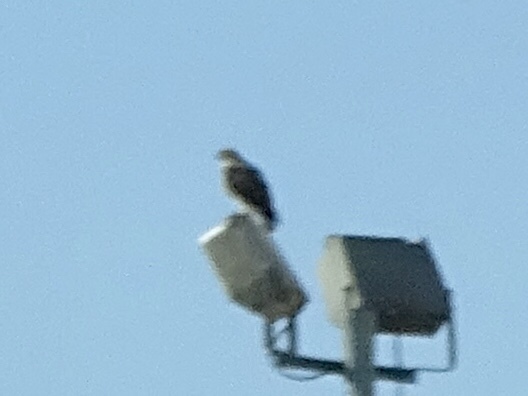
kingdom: Animalia
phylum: Chordata
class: Aves
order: Accipitriformes
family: Accipitridae
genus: Buteo
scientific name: Buteo jamaicensis
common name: Red-tailed hawk
